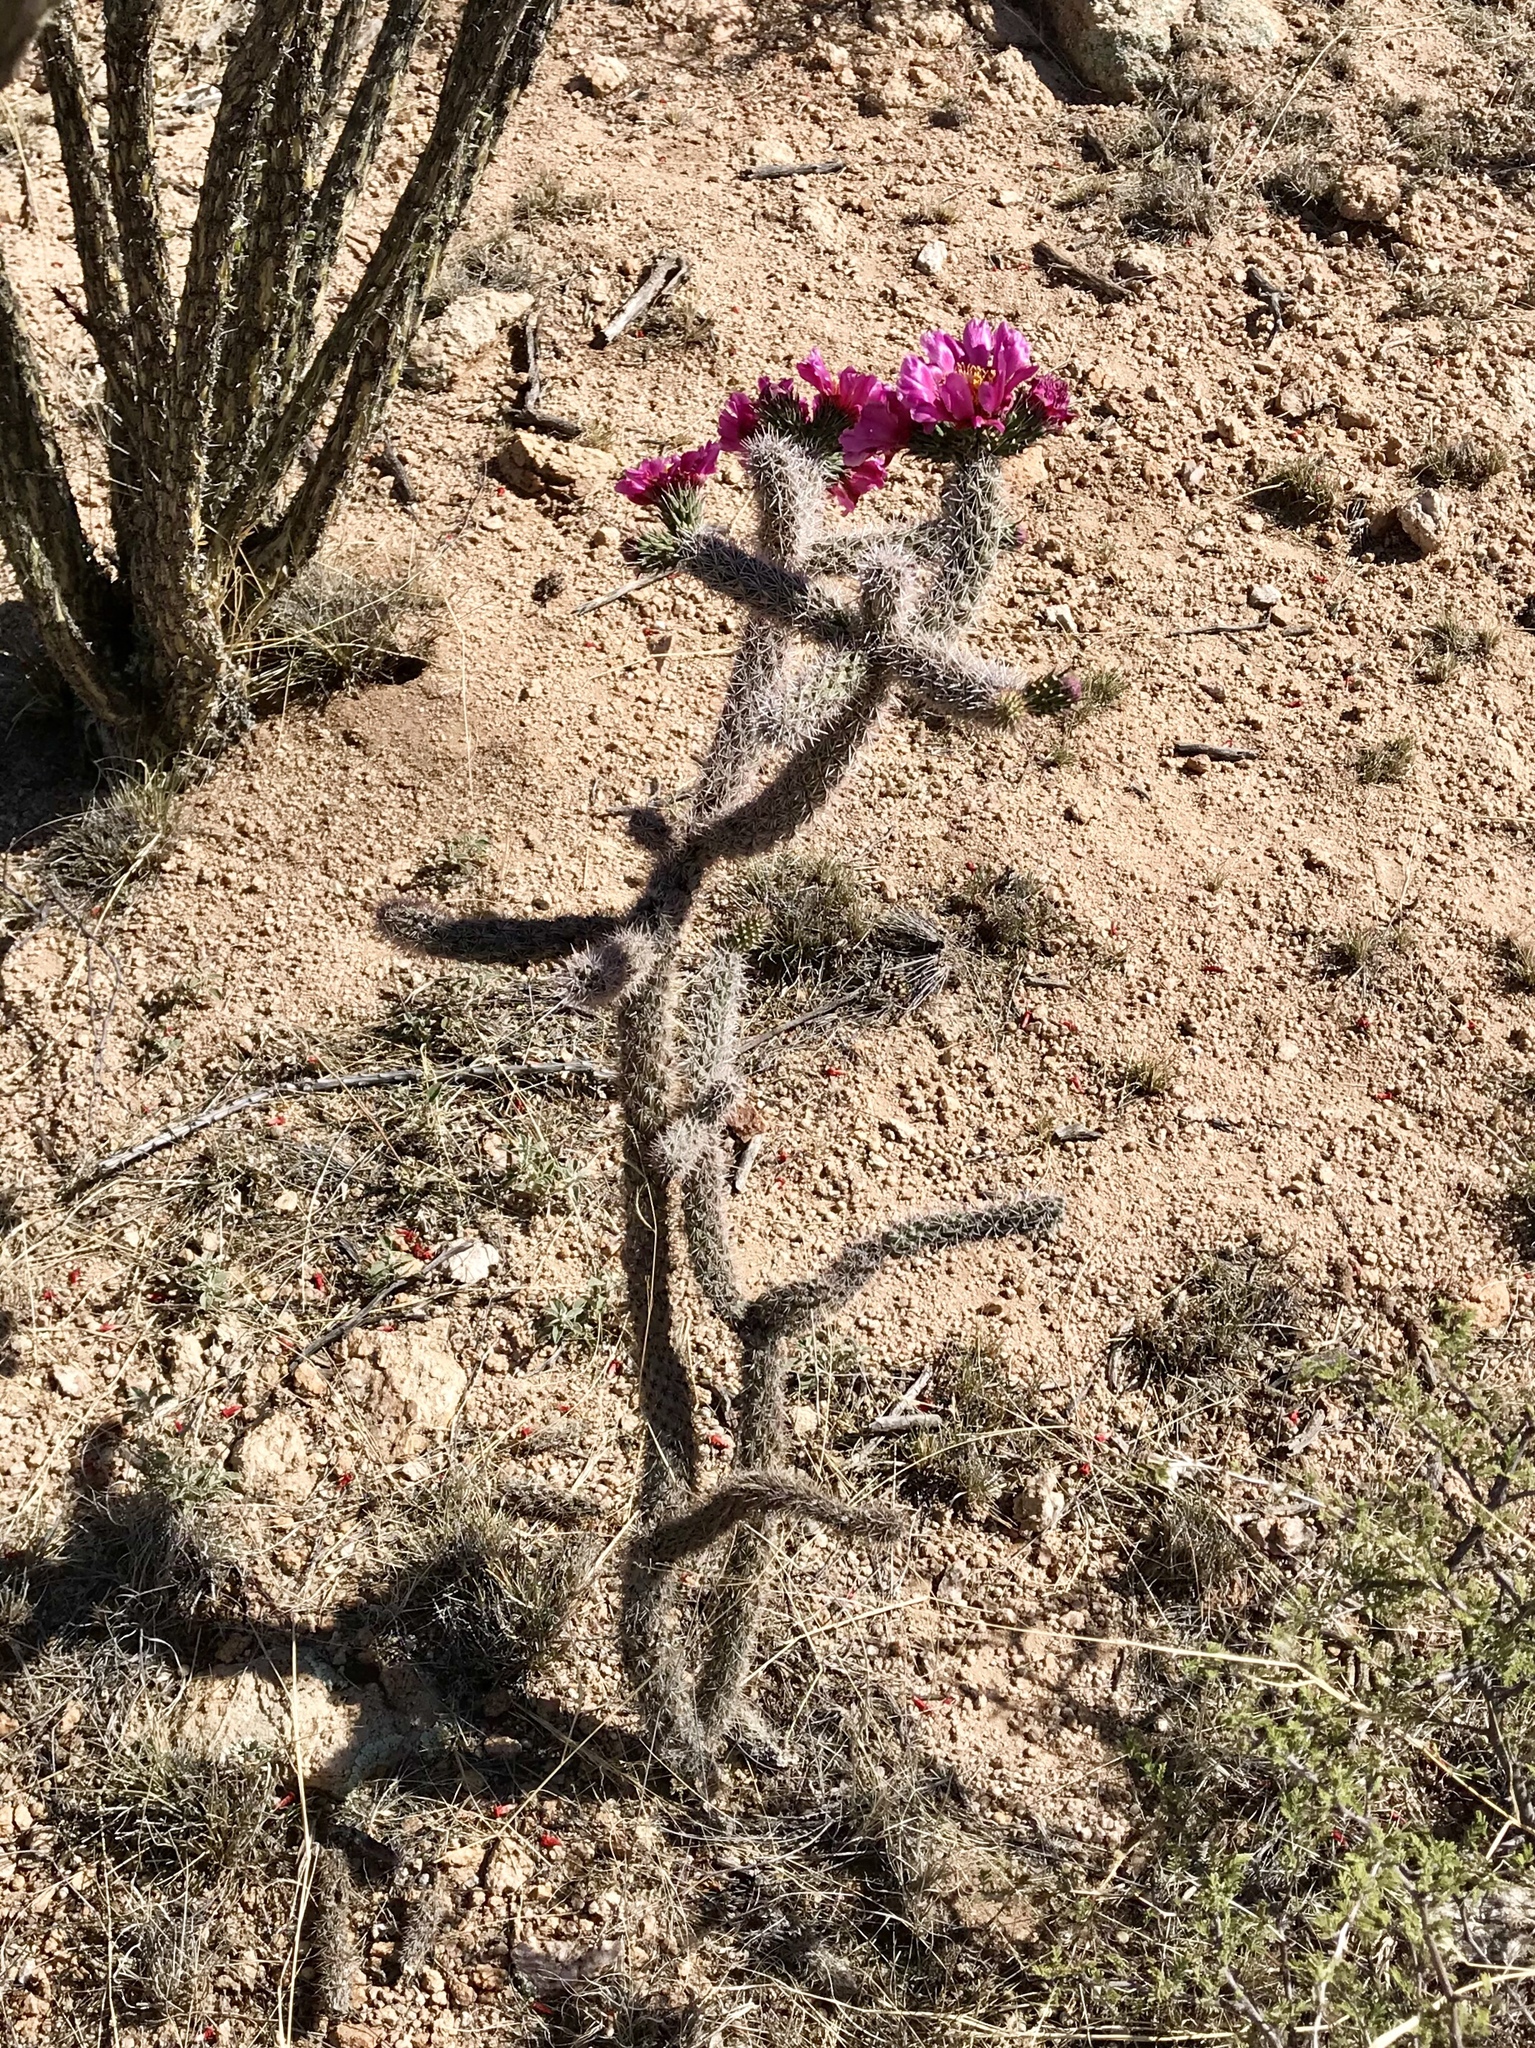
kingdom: Plantae
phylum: Tracheophyta
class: Magnoliopsida
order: Caryophyllales
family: Cactaceae
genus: Cylindropuntia
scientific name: Cylindropuntia imbricata
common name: Candelabrum cactus
